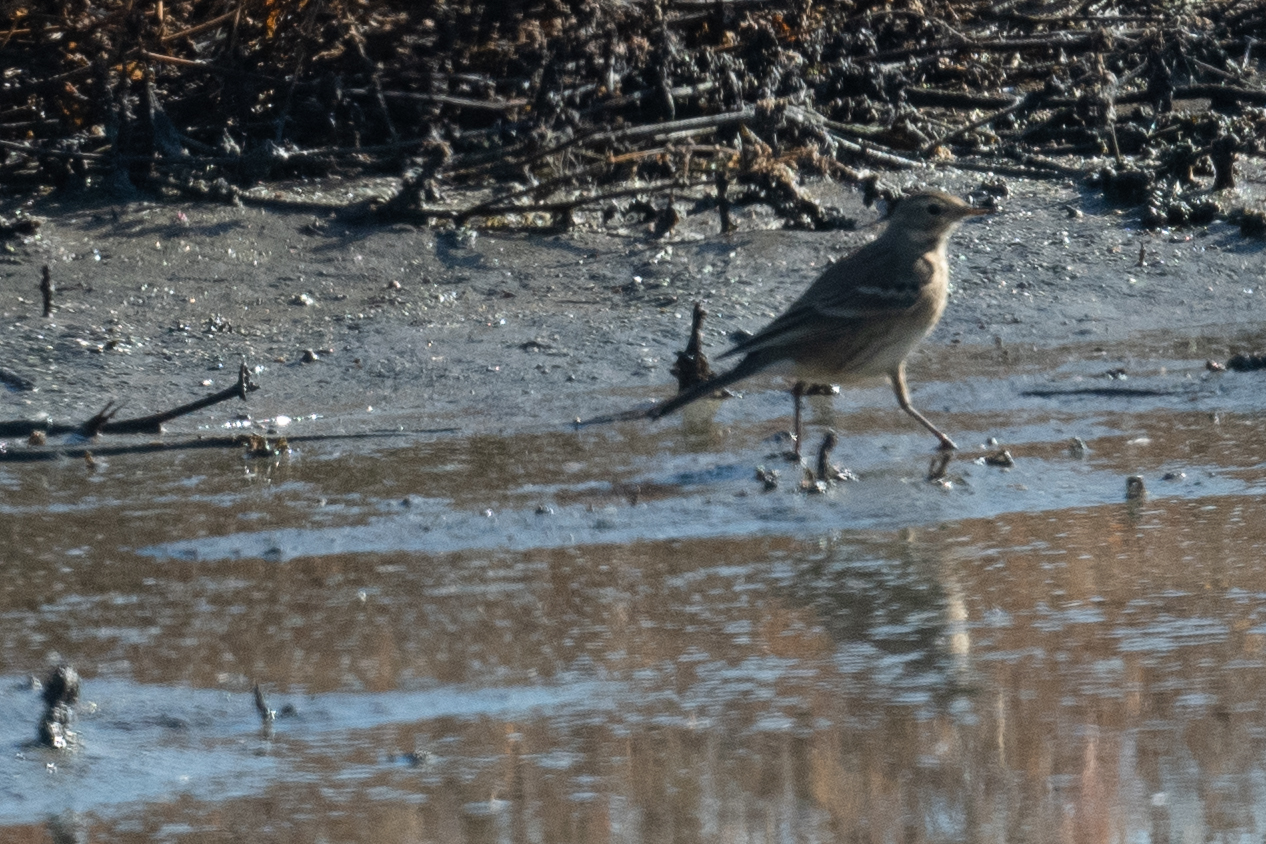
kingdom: Animalia
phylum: Chordata
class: Aves
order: Passeriformes
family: Motacillidae
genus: Anthus
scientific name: Anthus rubescens
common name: Buff-bellied pipit
